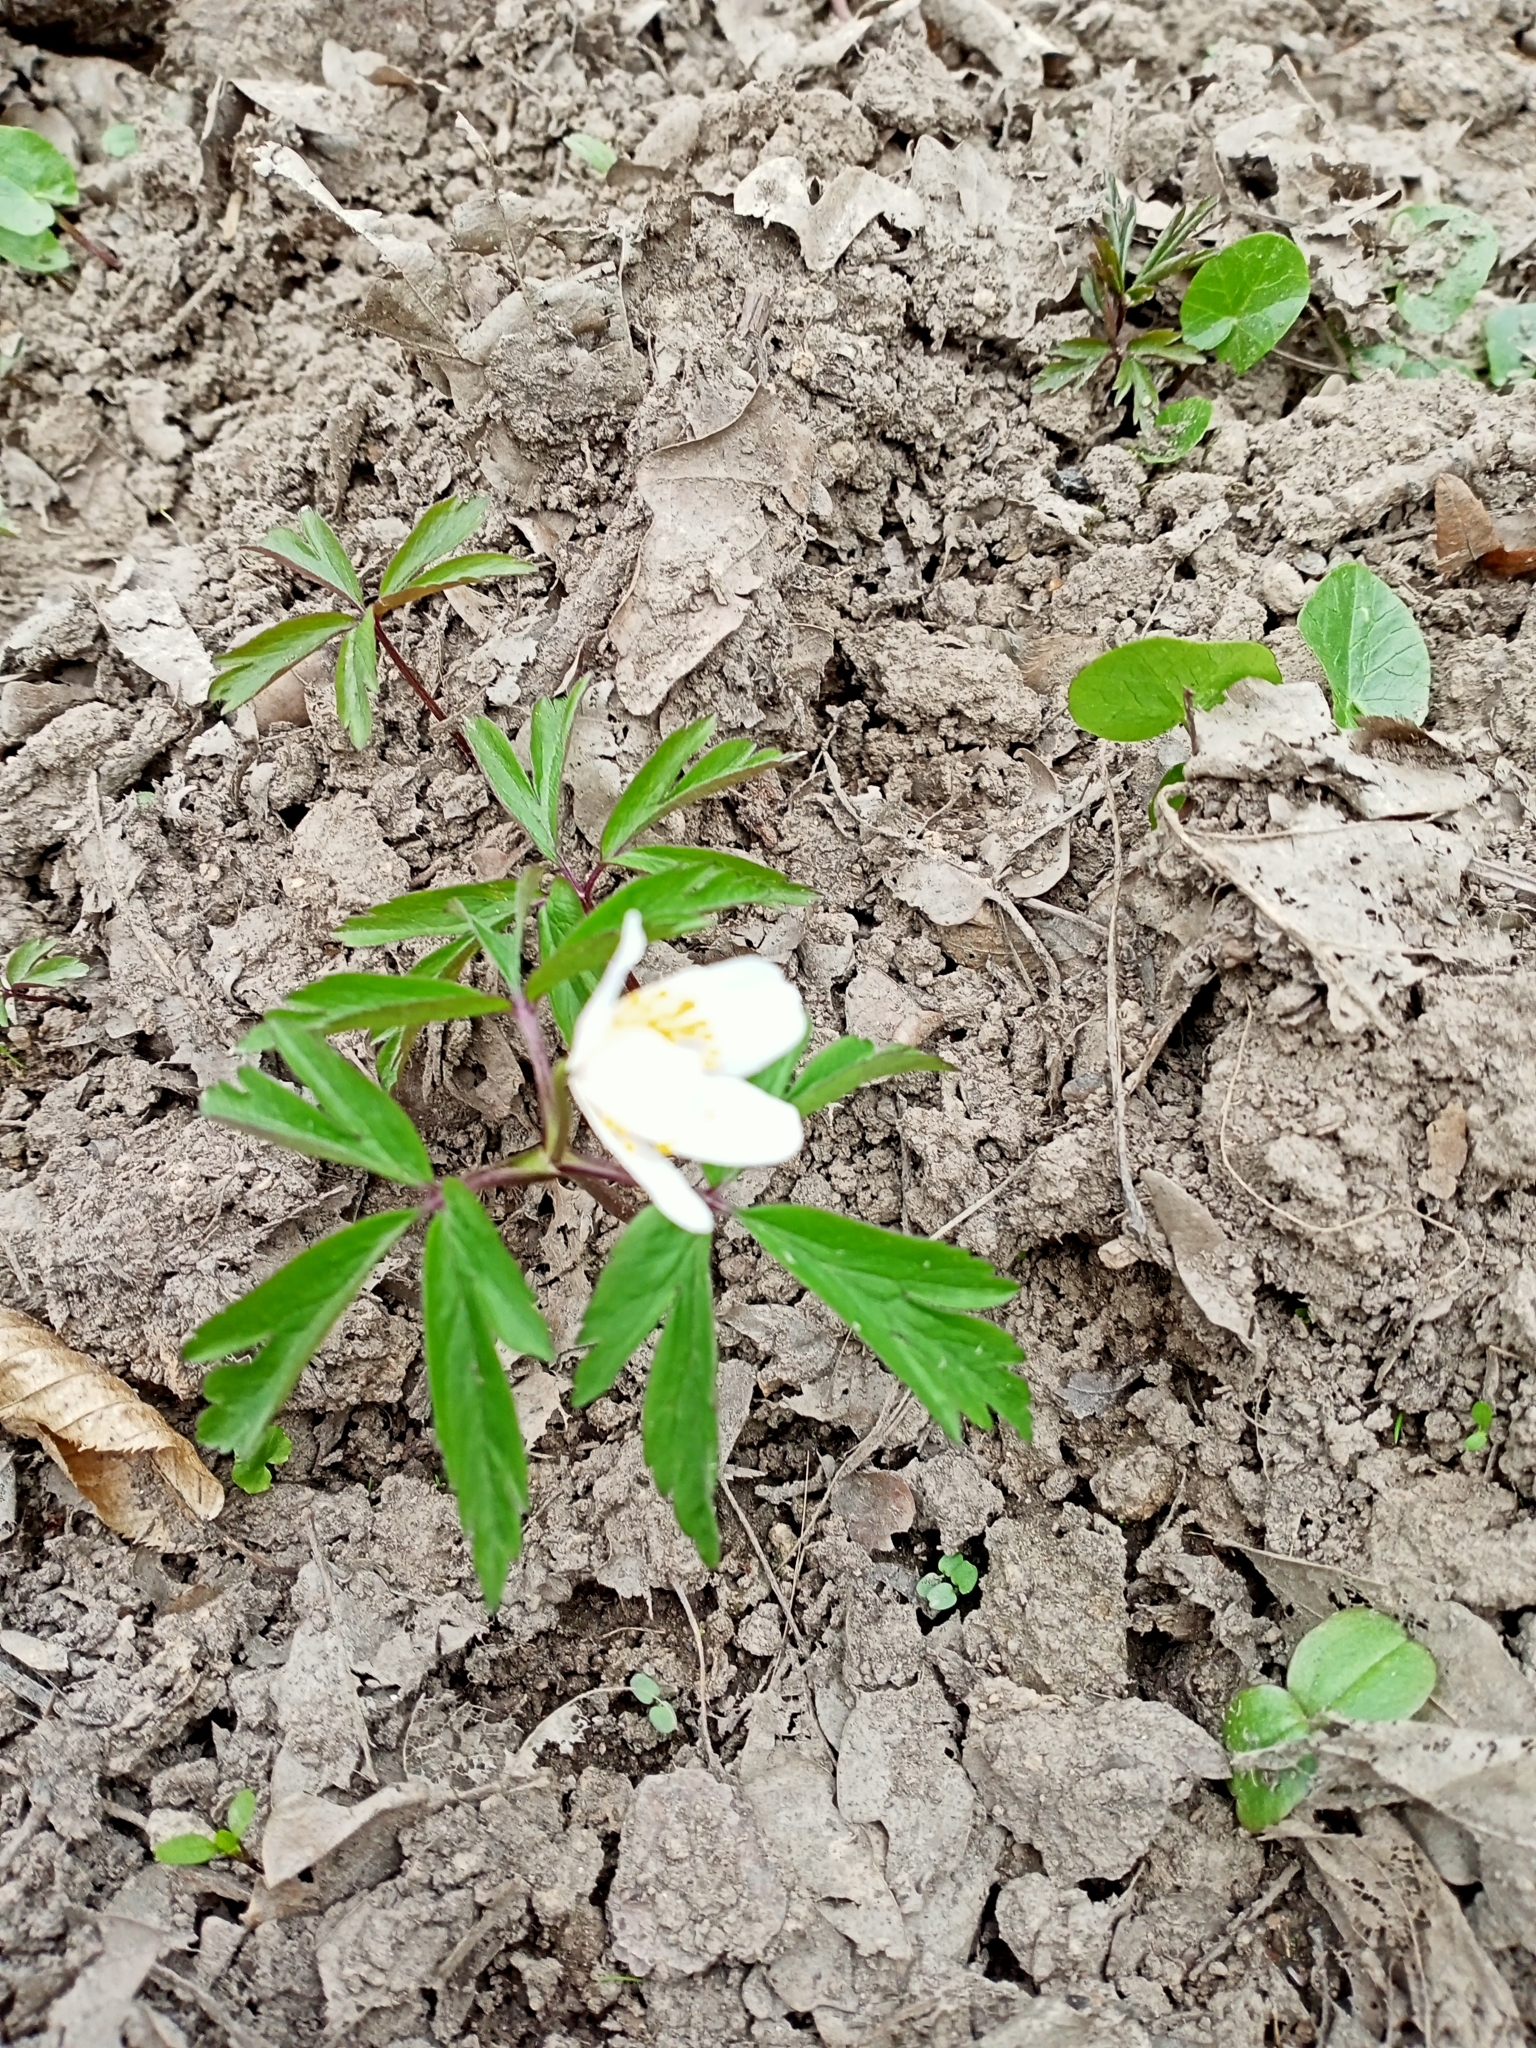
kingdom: Plantae
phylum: Tracheophyta
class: Magnoliopsida
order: Ranunculales
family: Ranunculaceae
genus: Anemone
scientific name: Anemone nemorosa
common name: Wood anemone
